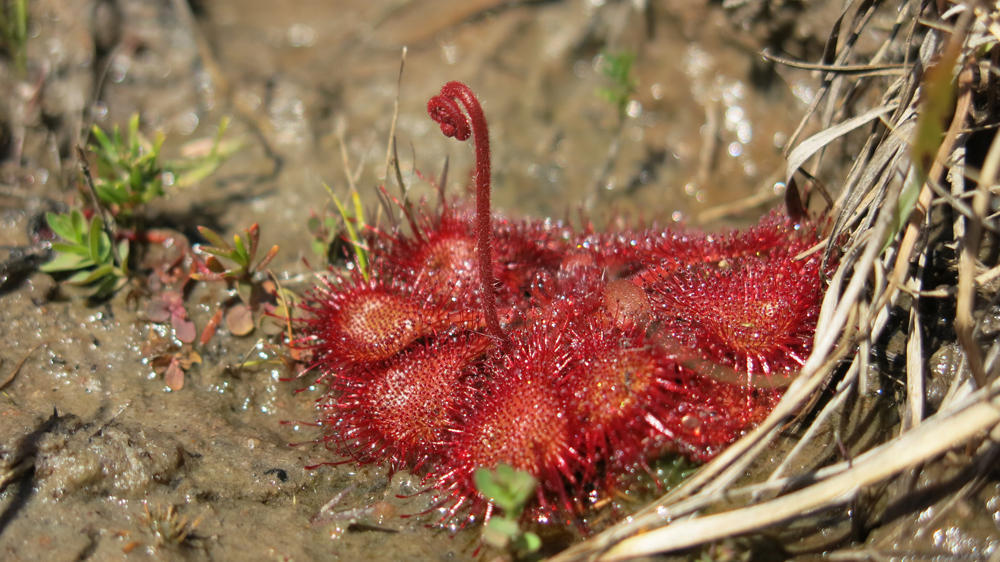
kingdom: Plantae
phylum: Tracheophyta
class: Magnoliopsida
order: Caryophyllales
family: Droseraceae
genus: Drosera
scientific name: Drosera burkeana
